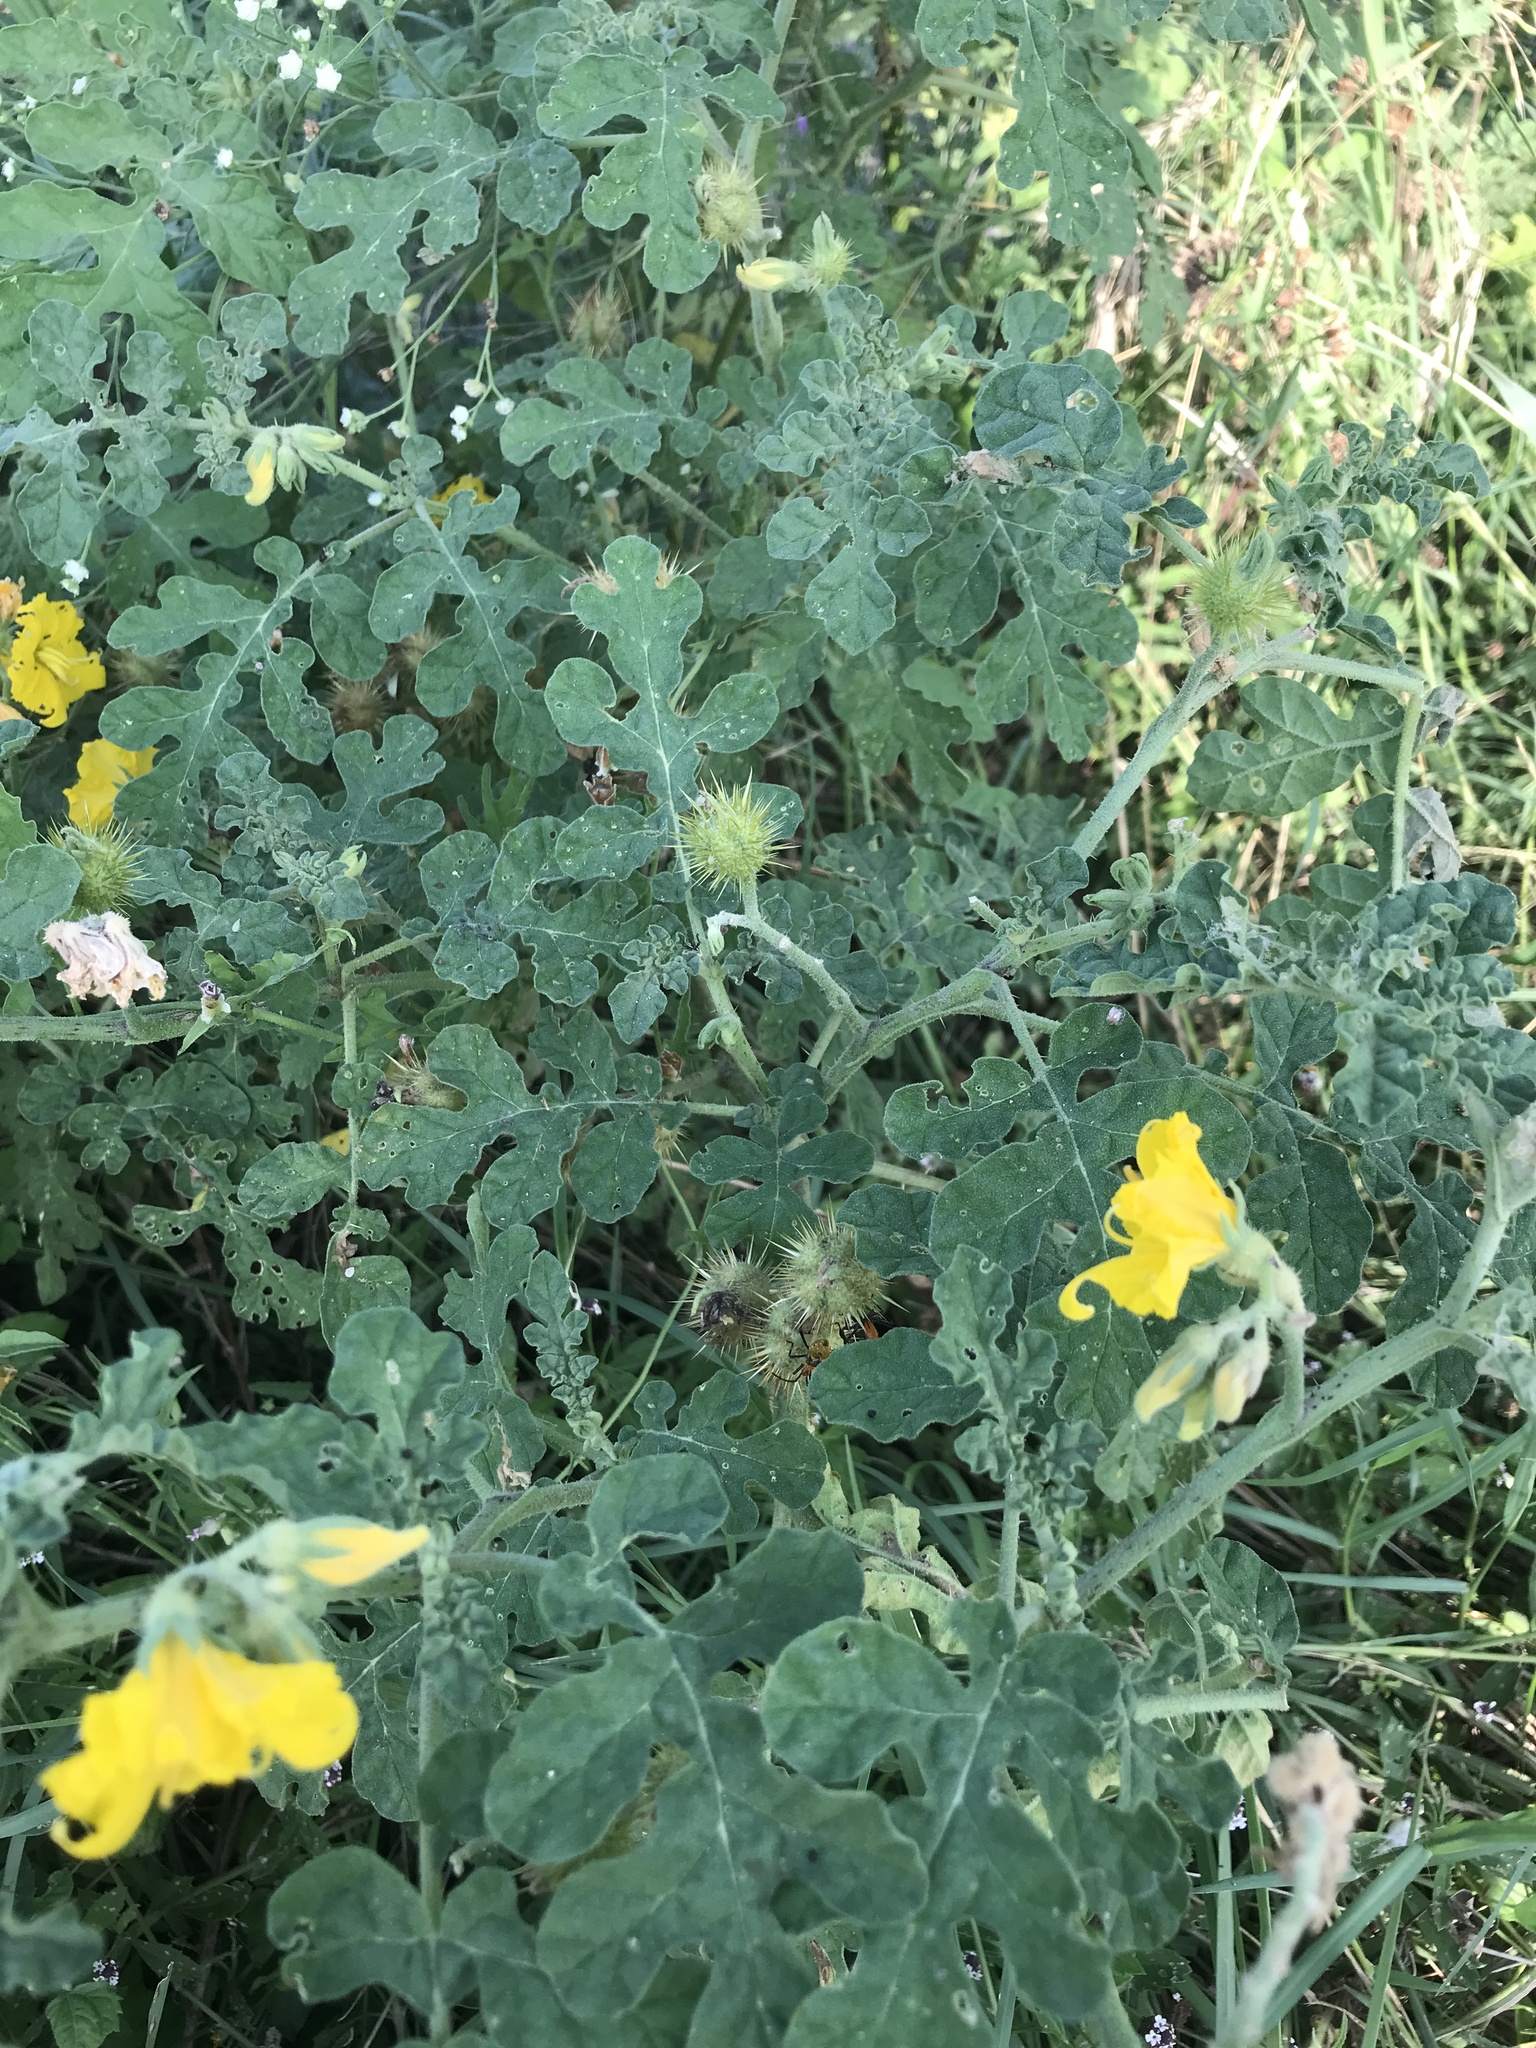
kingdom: Plantae
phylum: Tracheophyta
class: Magnoliopsida
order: Solanales
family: Solanaceae
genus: Solanum
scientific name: Solanum angustifolium
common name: Buffalobur nightshade
